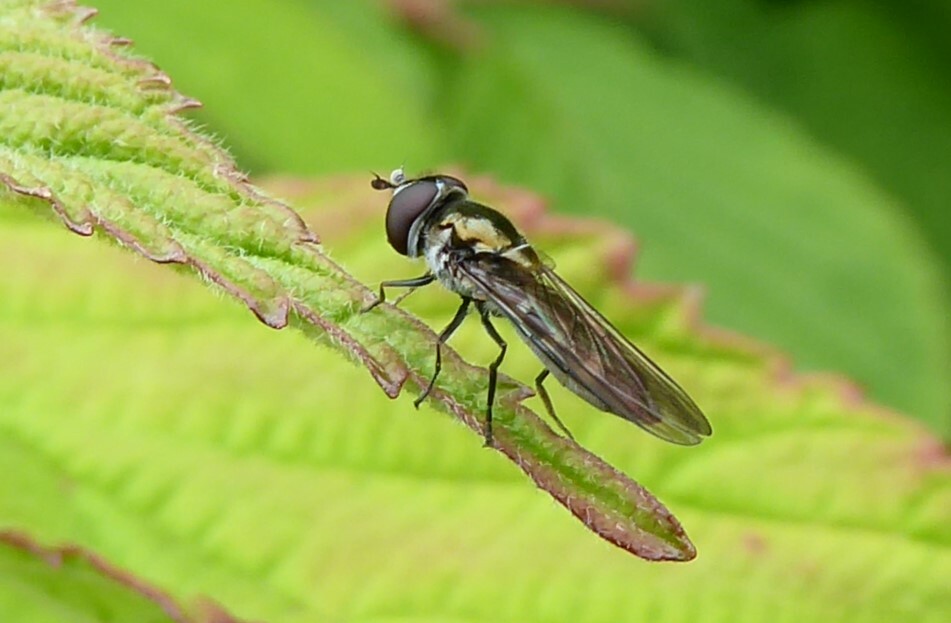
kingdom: Animalia
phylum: Arthropoda
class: Insecta
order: Diptera
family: Syrphidae
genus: Melangyna
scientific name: Melangyna novaezelandiae
